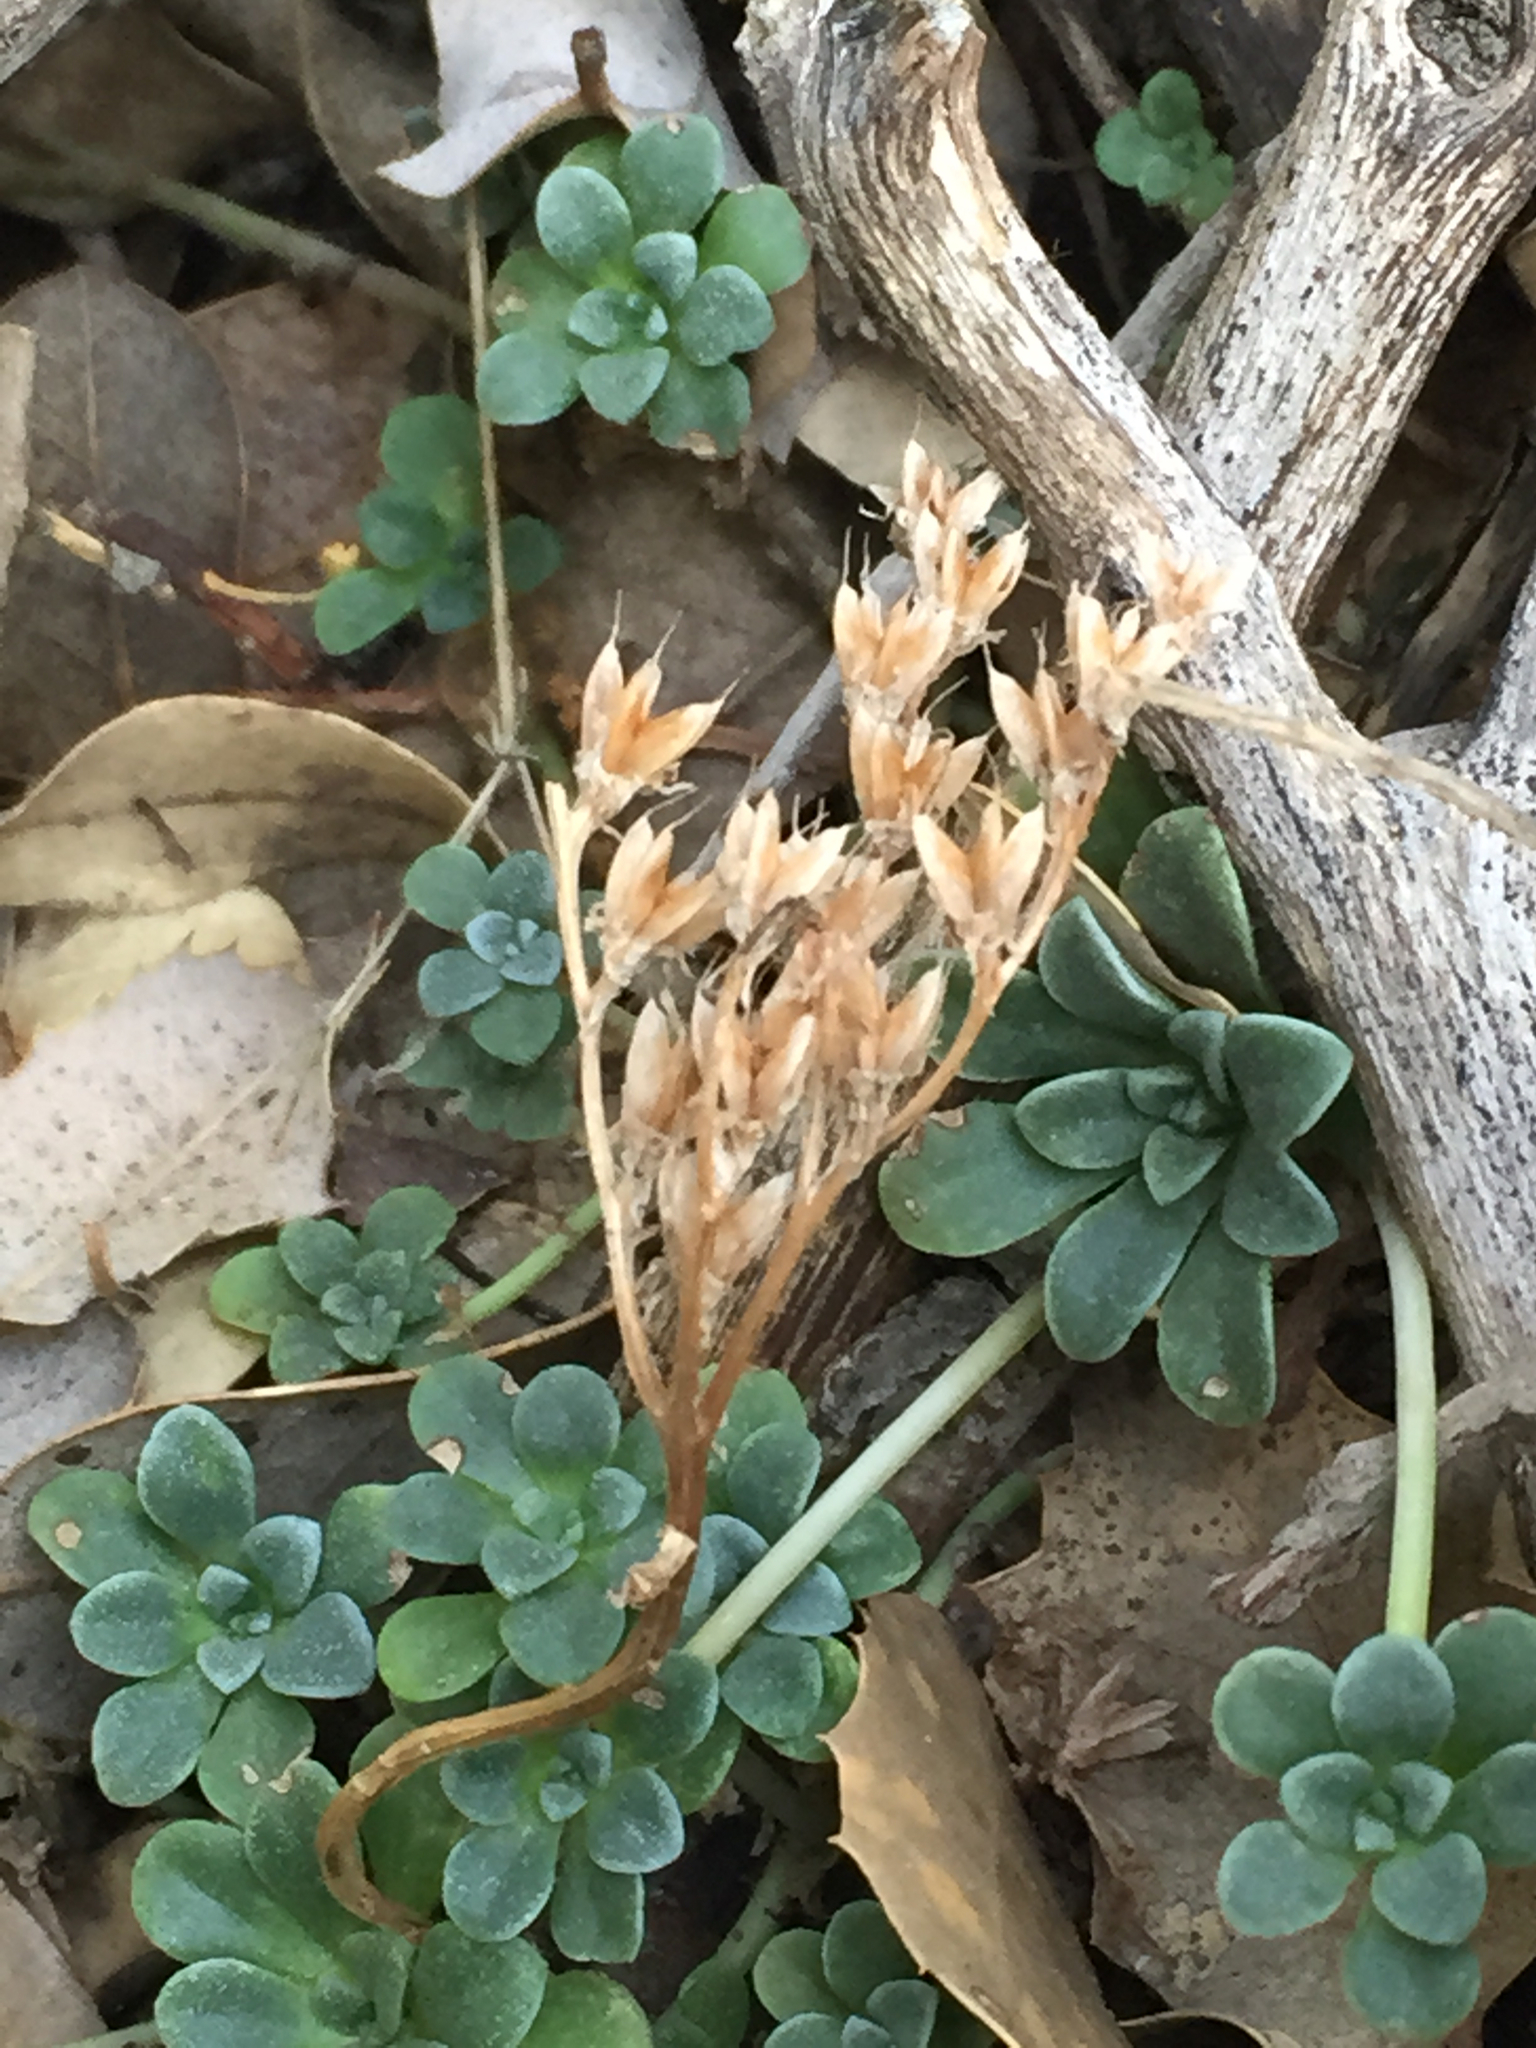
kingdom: Plantae
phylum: Tracheophyta
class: Magnoliopsida
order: Saxifragales
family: Crassulaceae
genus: Sedum
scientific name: Sedum spathulifolium
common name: Colorado stonecrop
